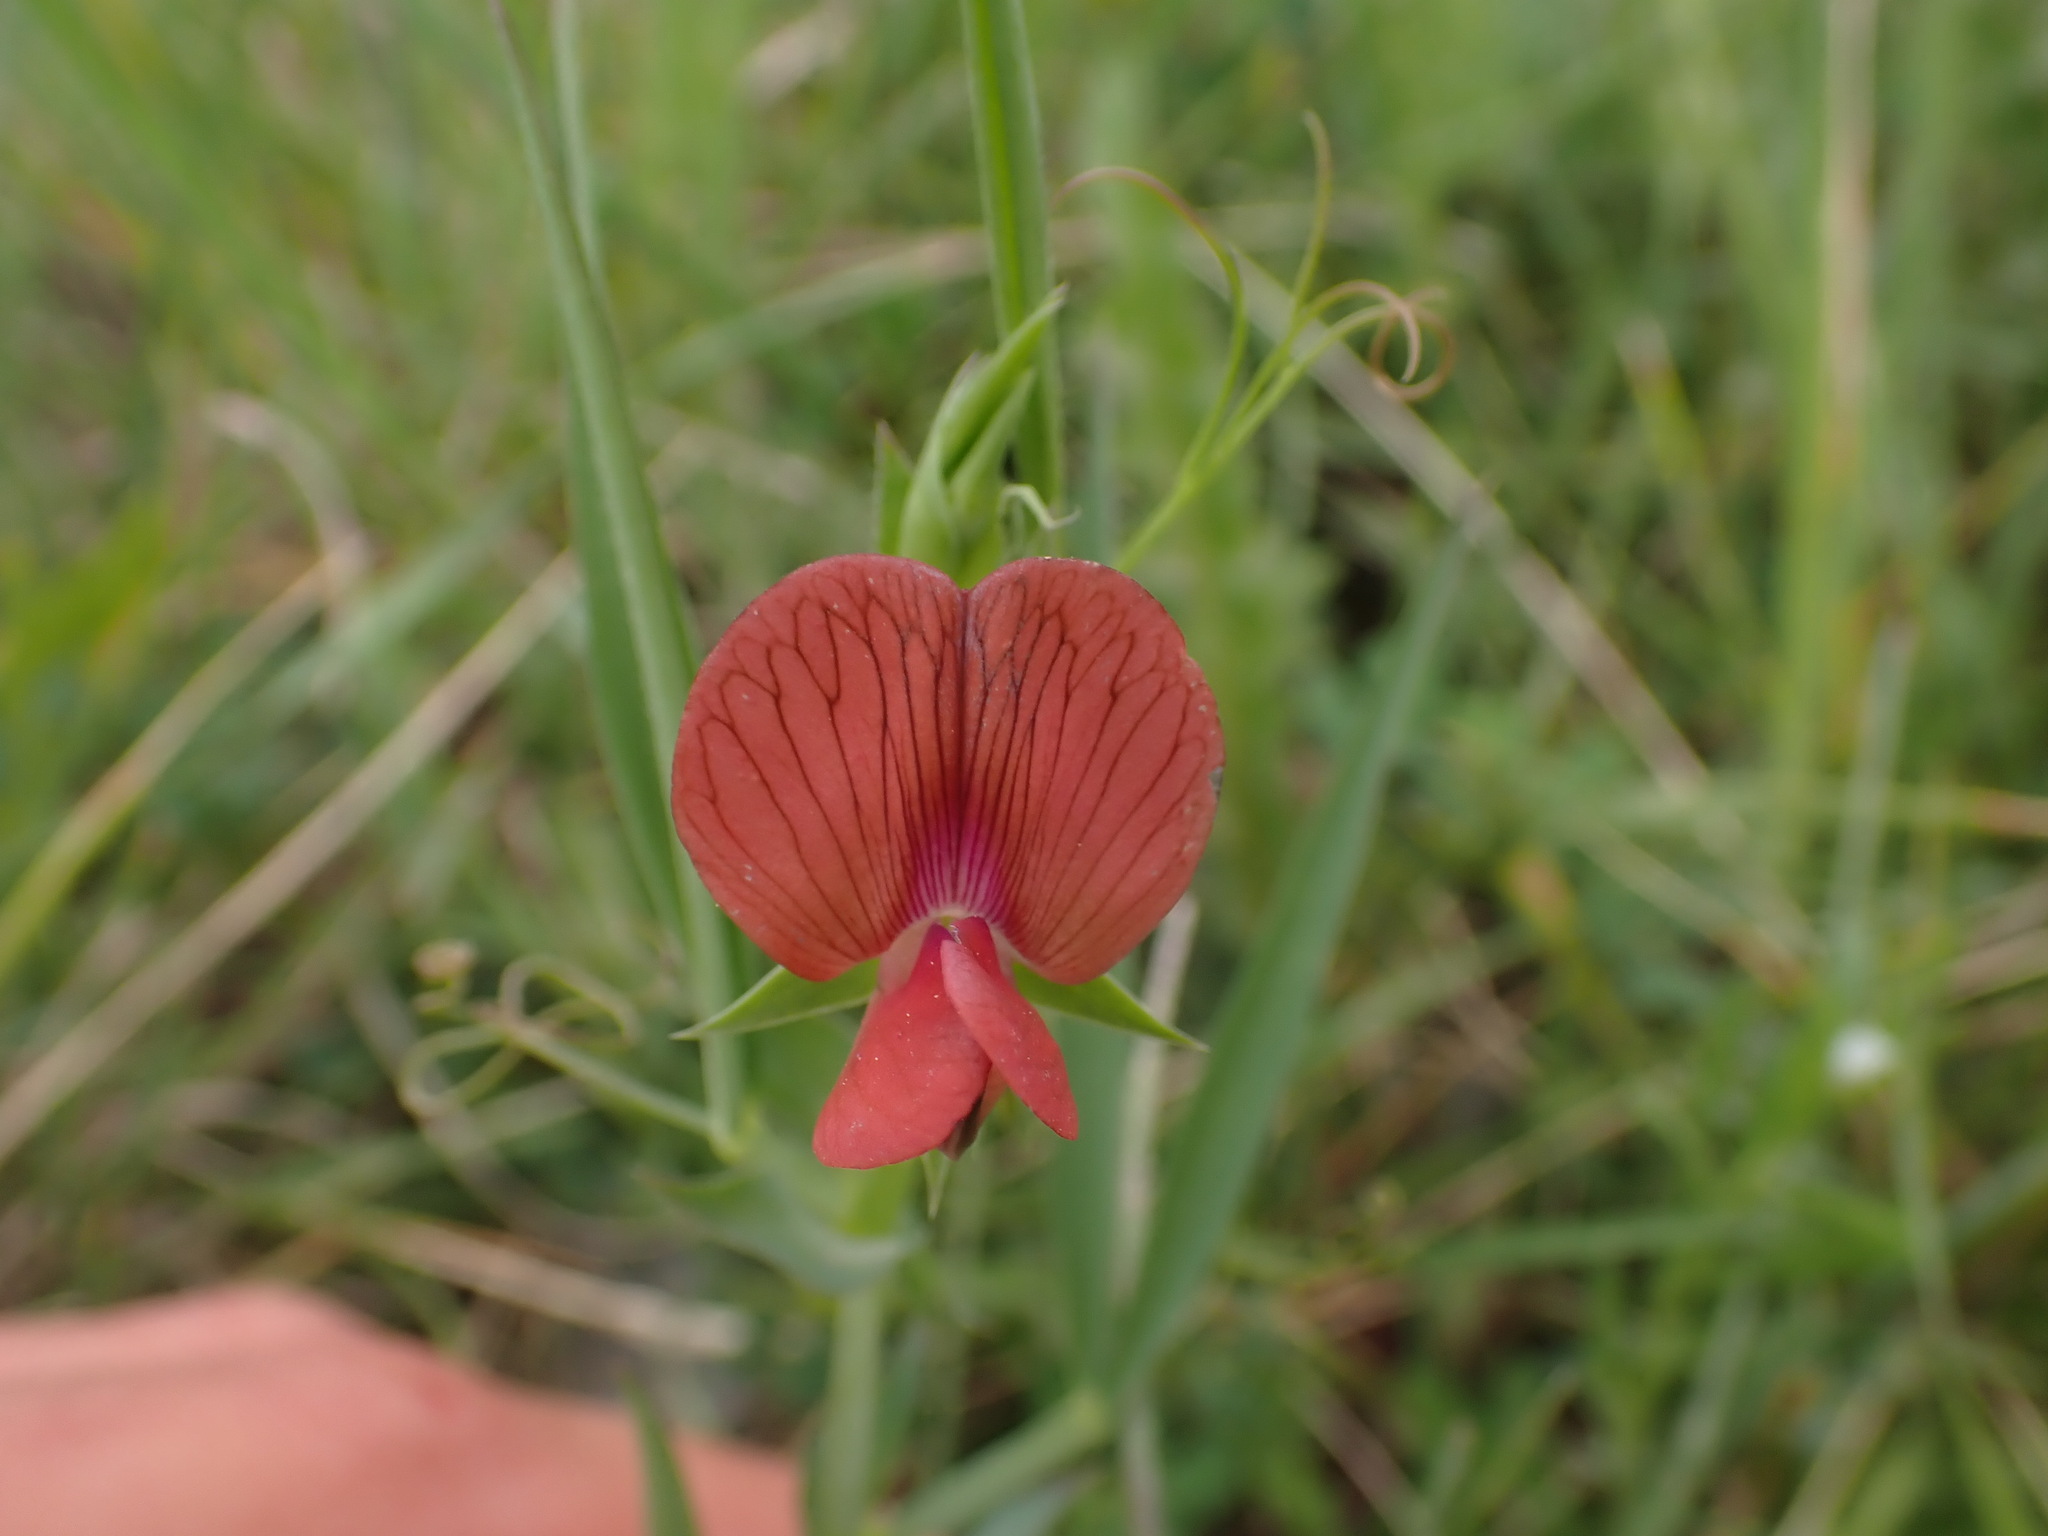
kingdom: Plantae
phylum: Tracheophyta
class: Magnoliopsida
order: Fabales
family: Fabaceae
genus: Lathyrus
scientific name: Lathyrus cicera
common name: Red vetchling
